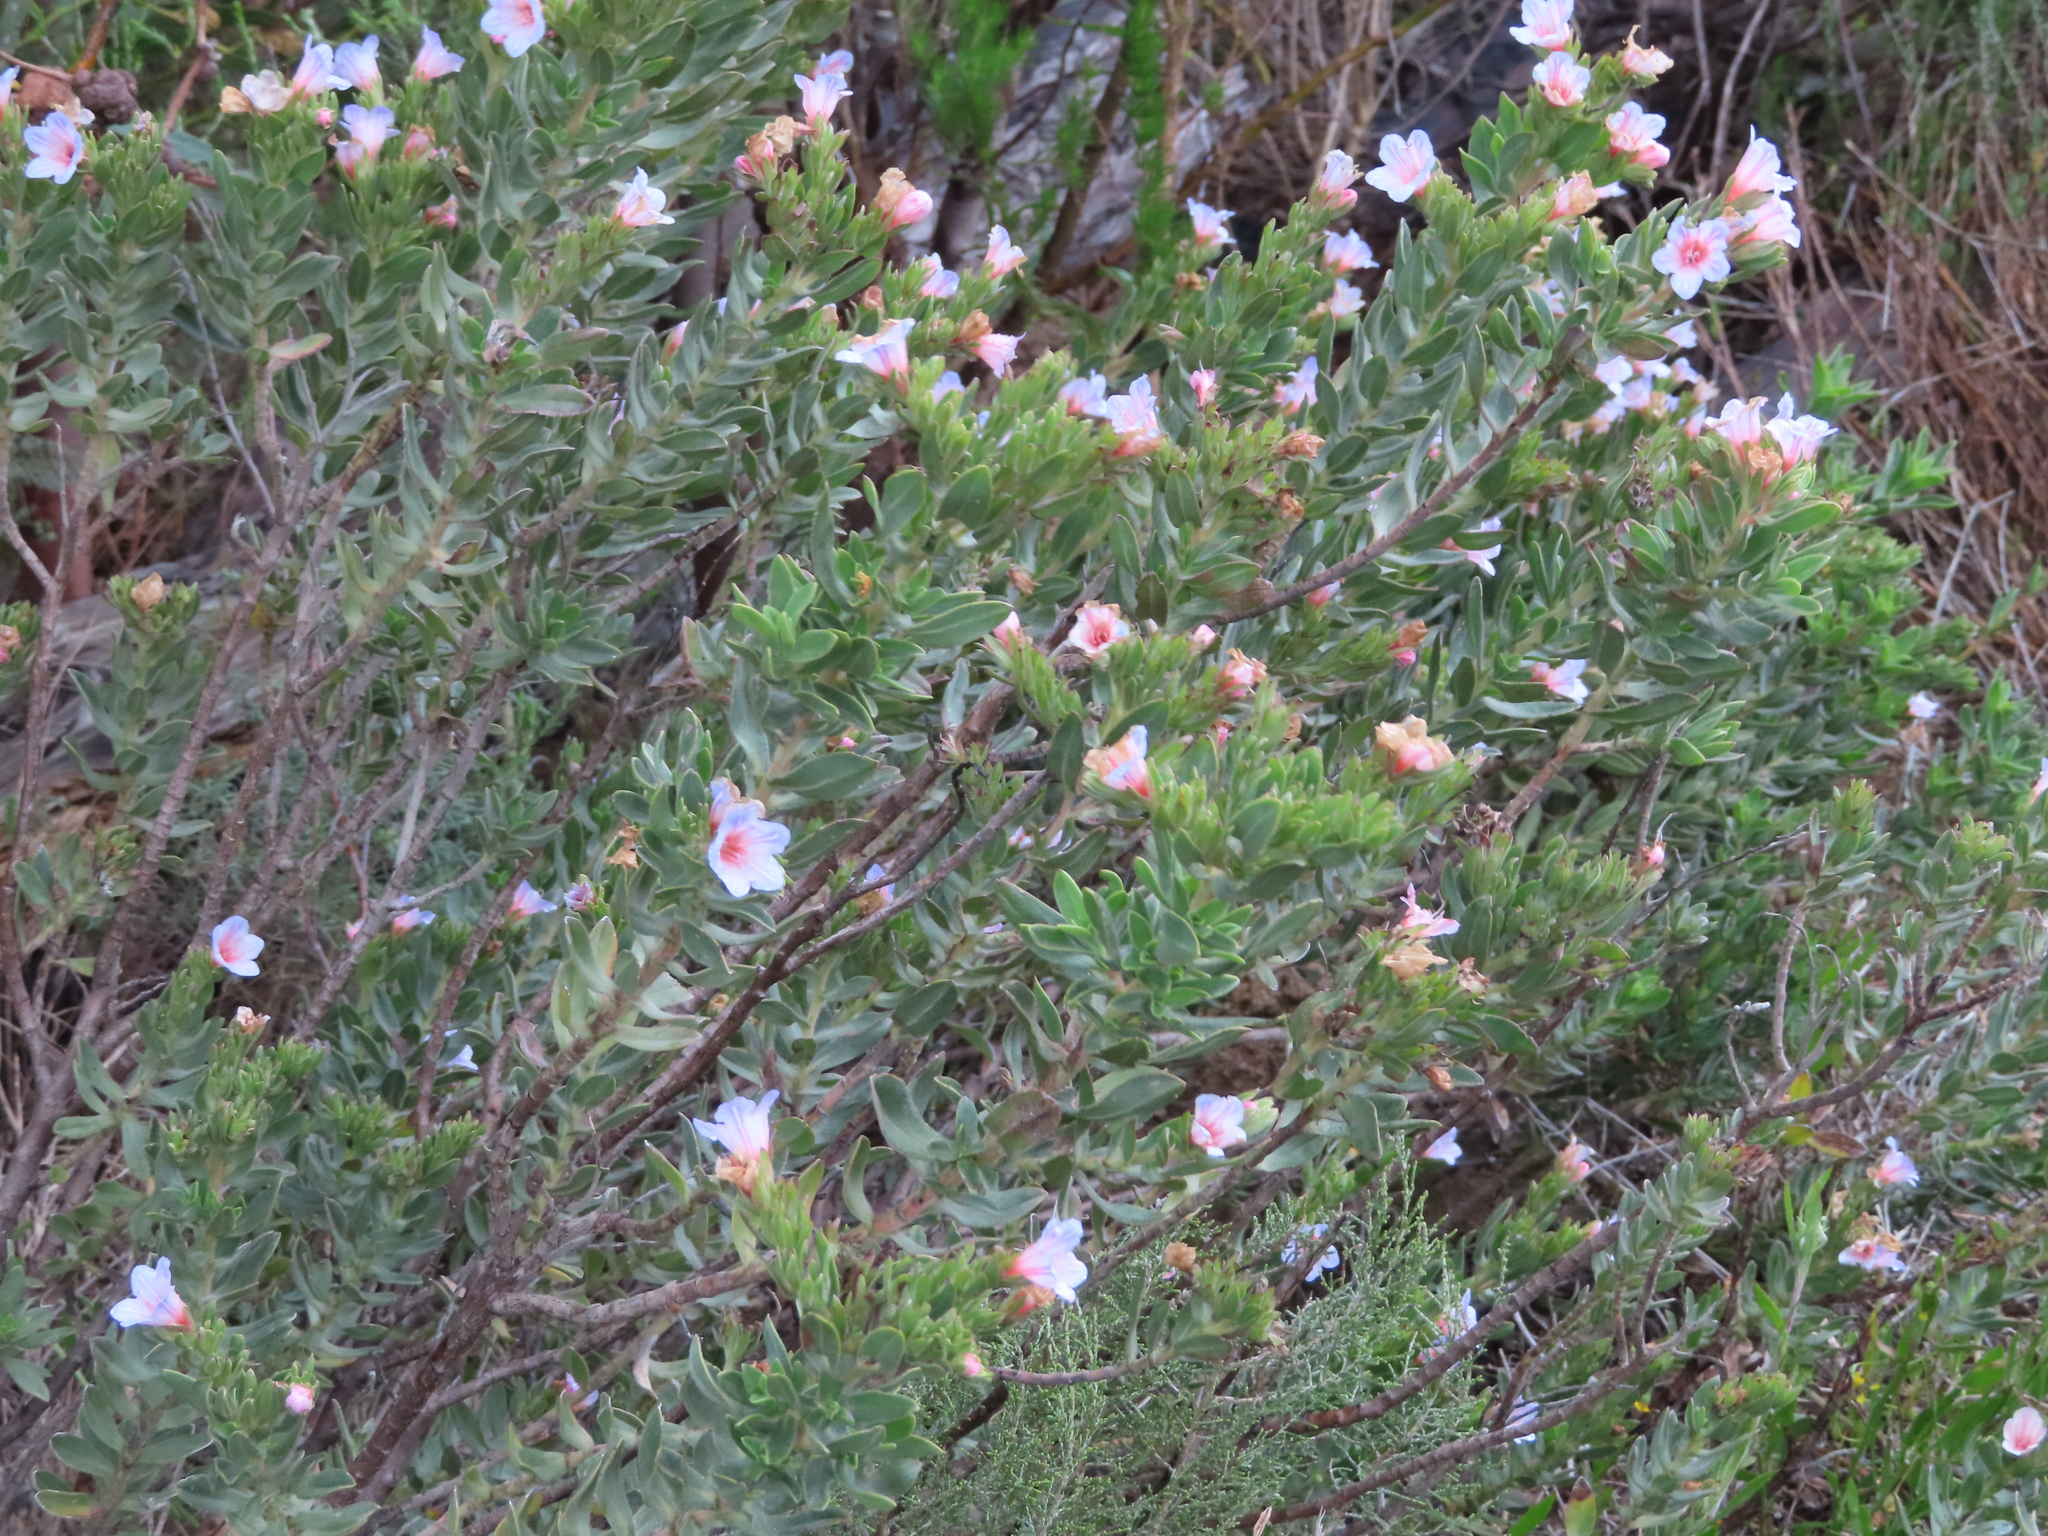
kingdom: Plantae
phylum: Tracheophyta
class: Magnoliopsida
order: Boraginales
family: Boraginaceae
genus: Lobostemon
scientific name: Lobostemon fruticosus
